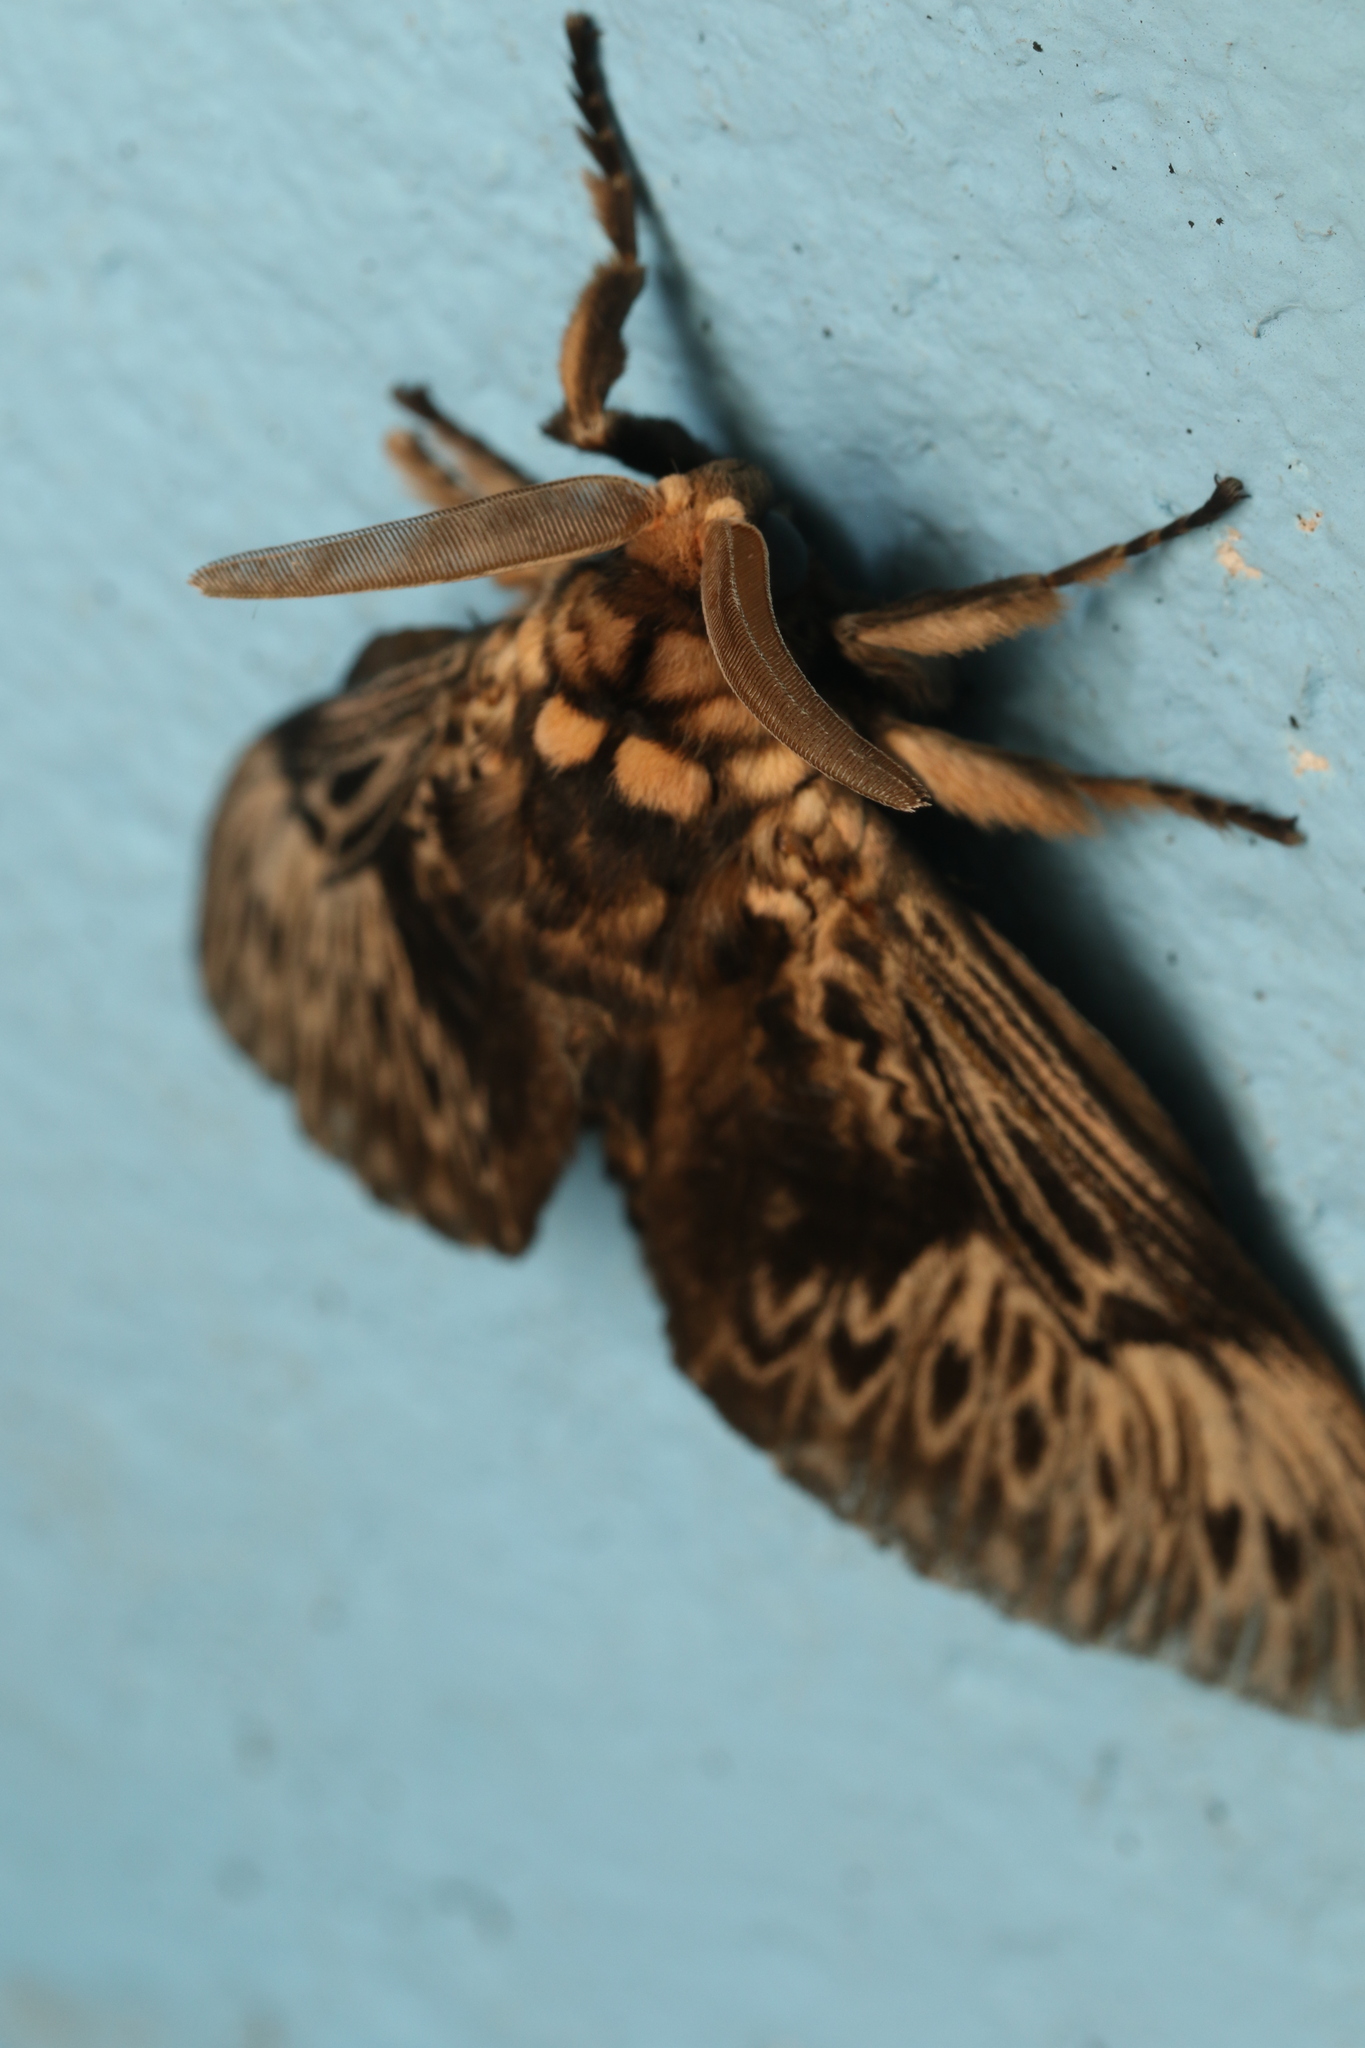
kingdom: Animalia
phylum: Arthropoda
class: Insecta
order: Lepidoptera
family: Megalopygidae
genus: Podalia
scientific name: Podalia fuscescens
